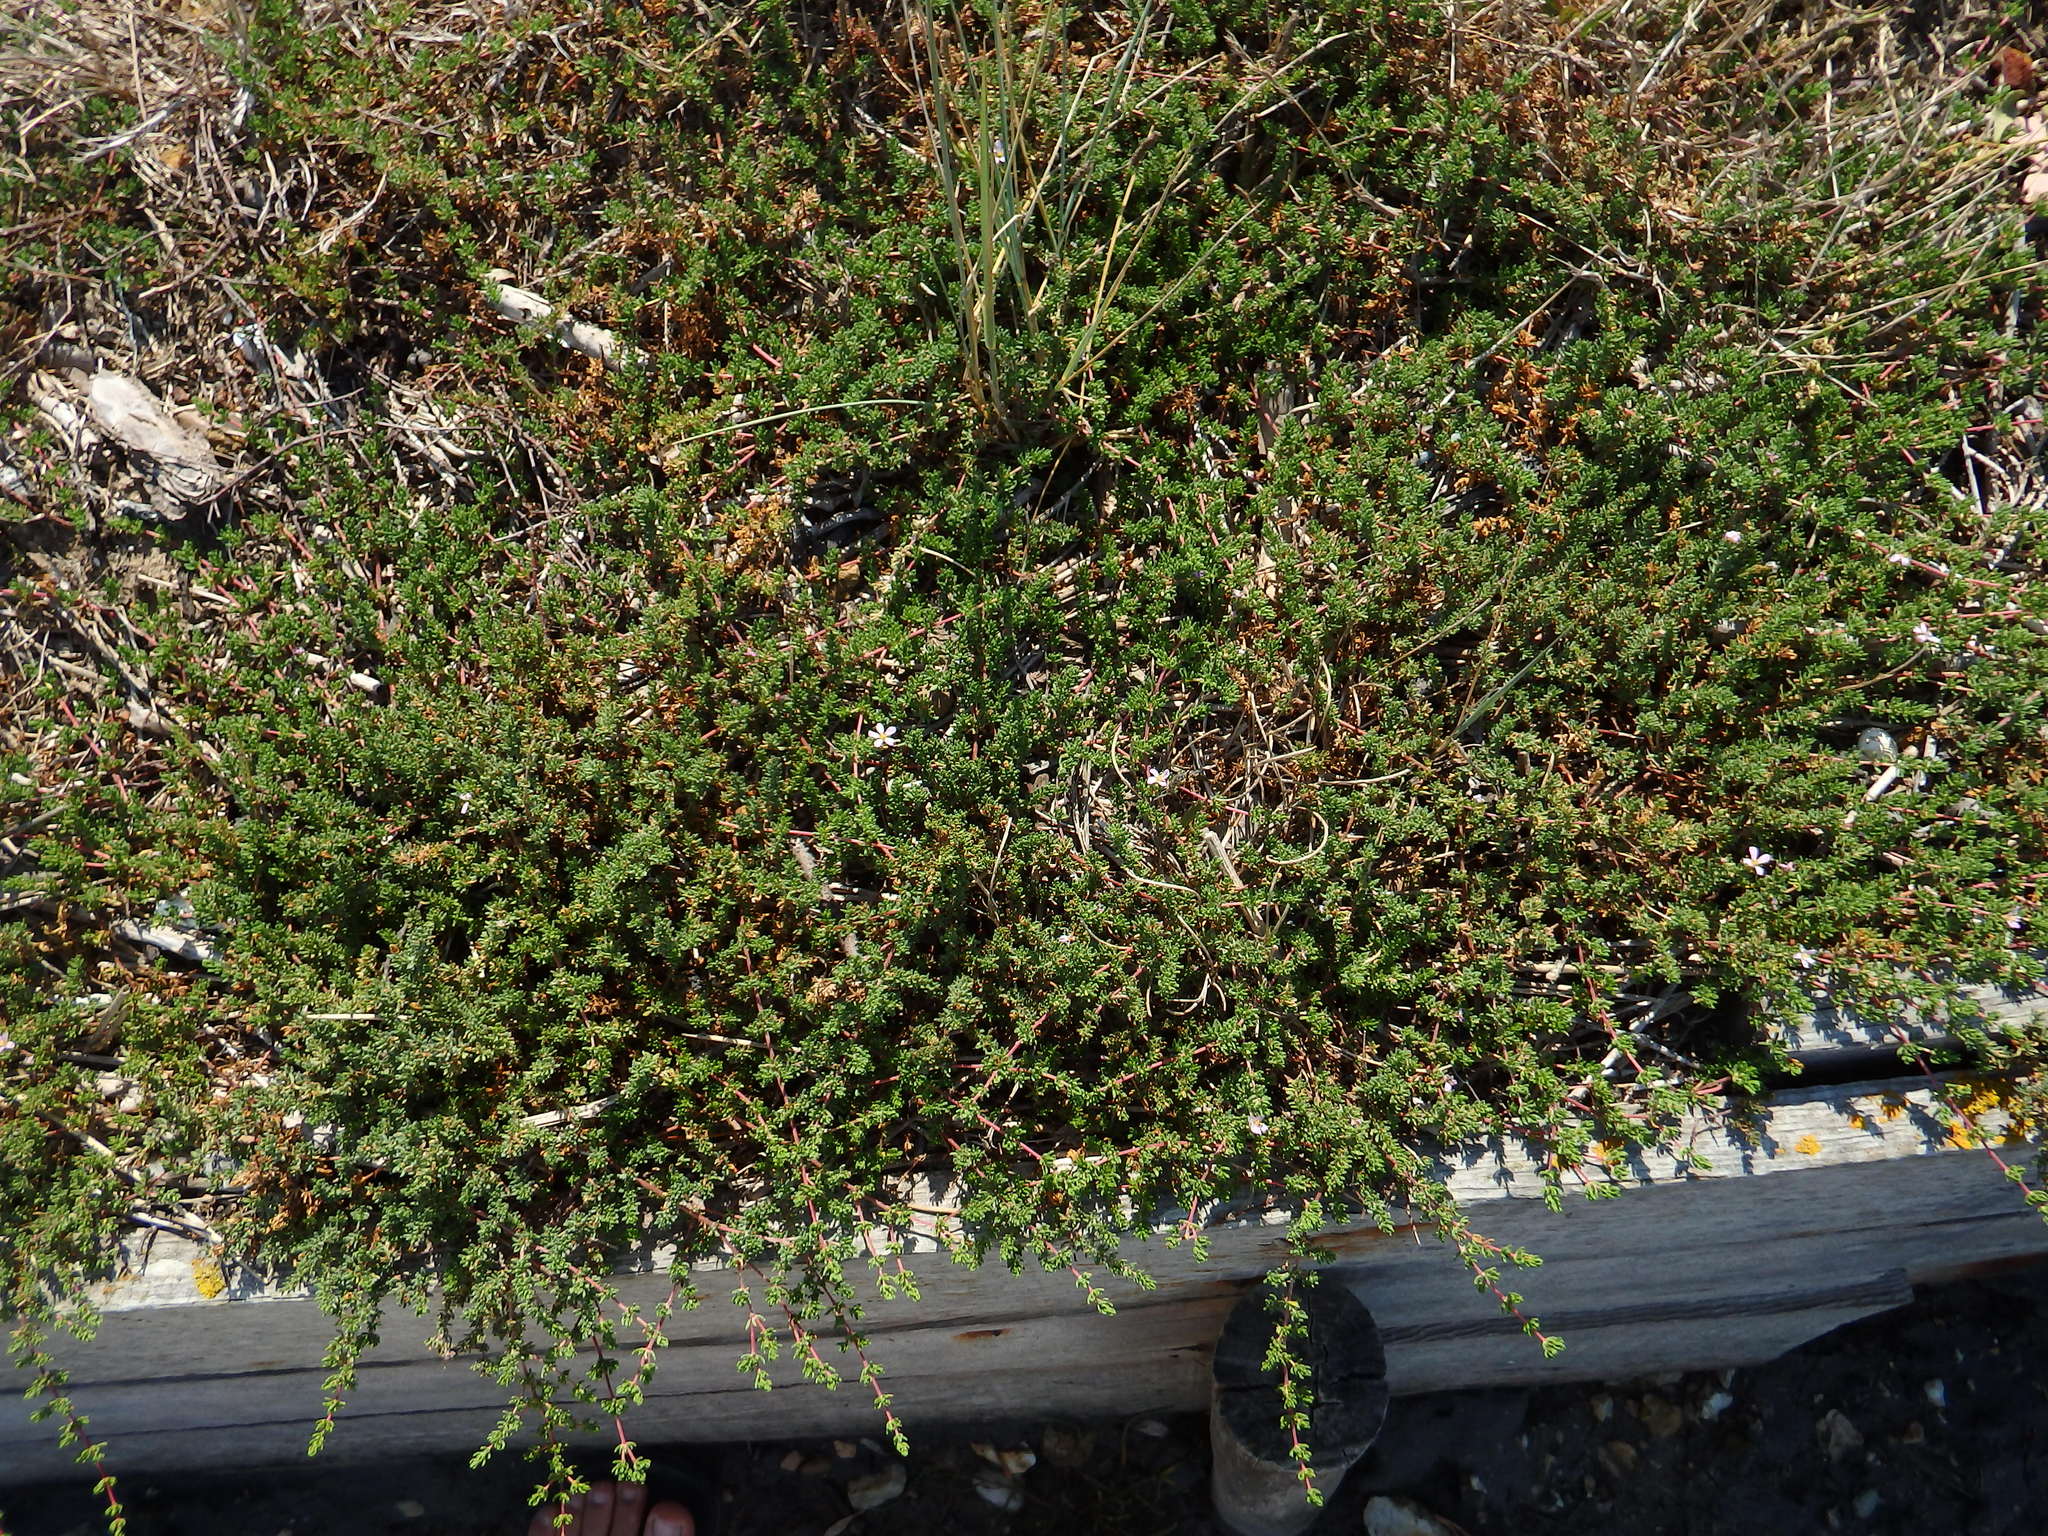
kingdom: Plantae
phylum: Tracheophyta
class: Magnoliopsida
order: Caryophyllales
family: Frankeniaceae
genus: Frankenia
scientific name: Frankenia laevis
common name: Sea-heath
